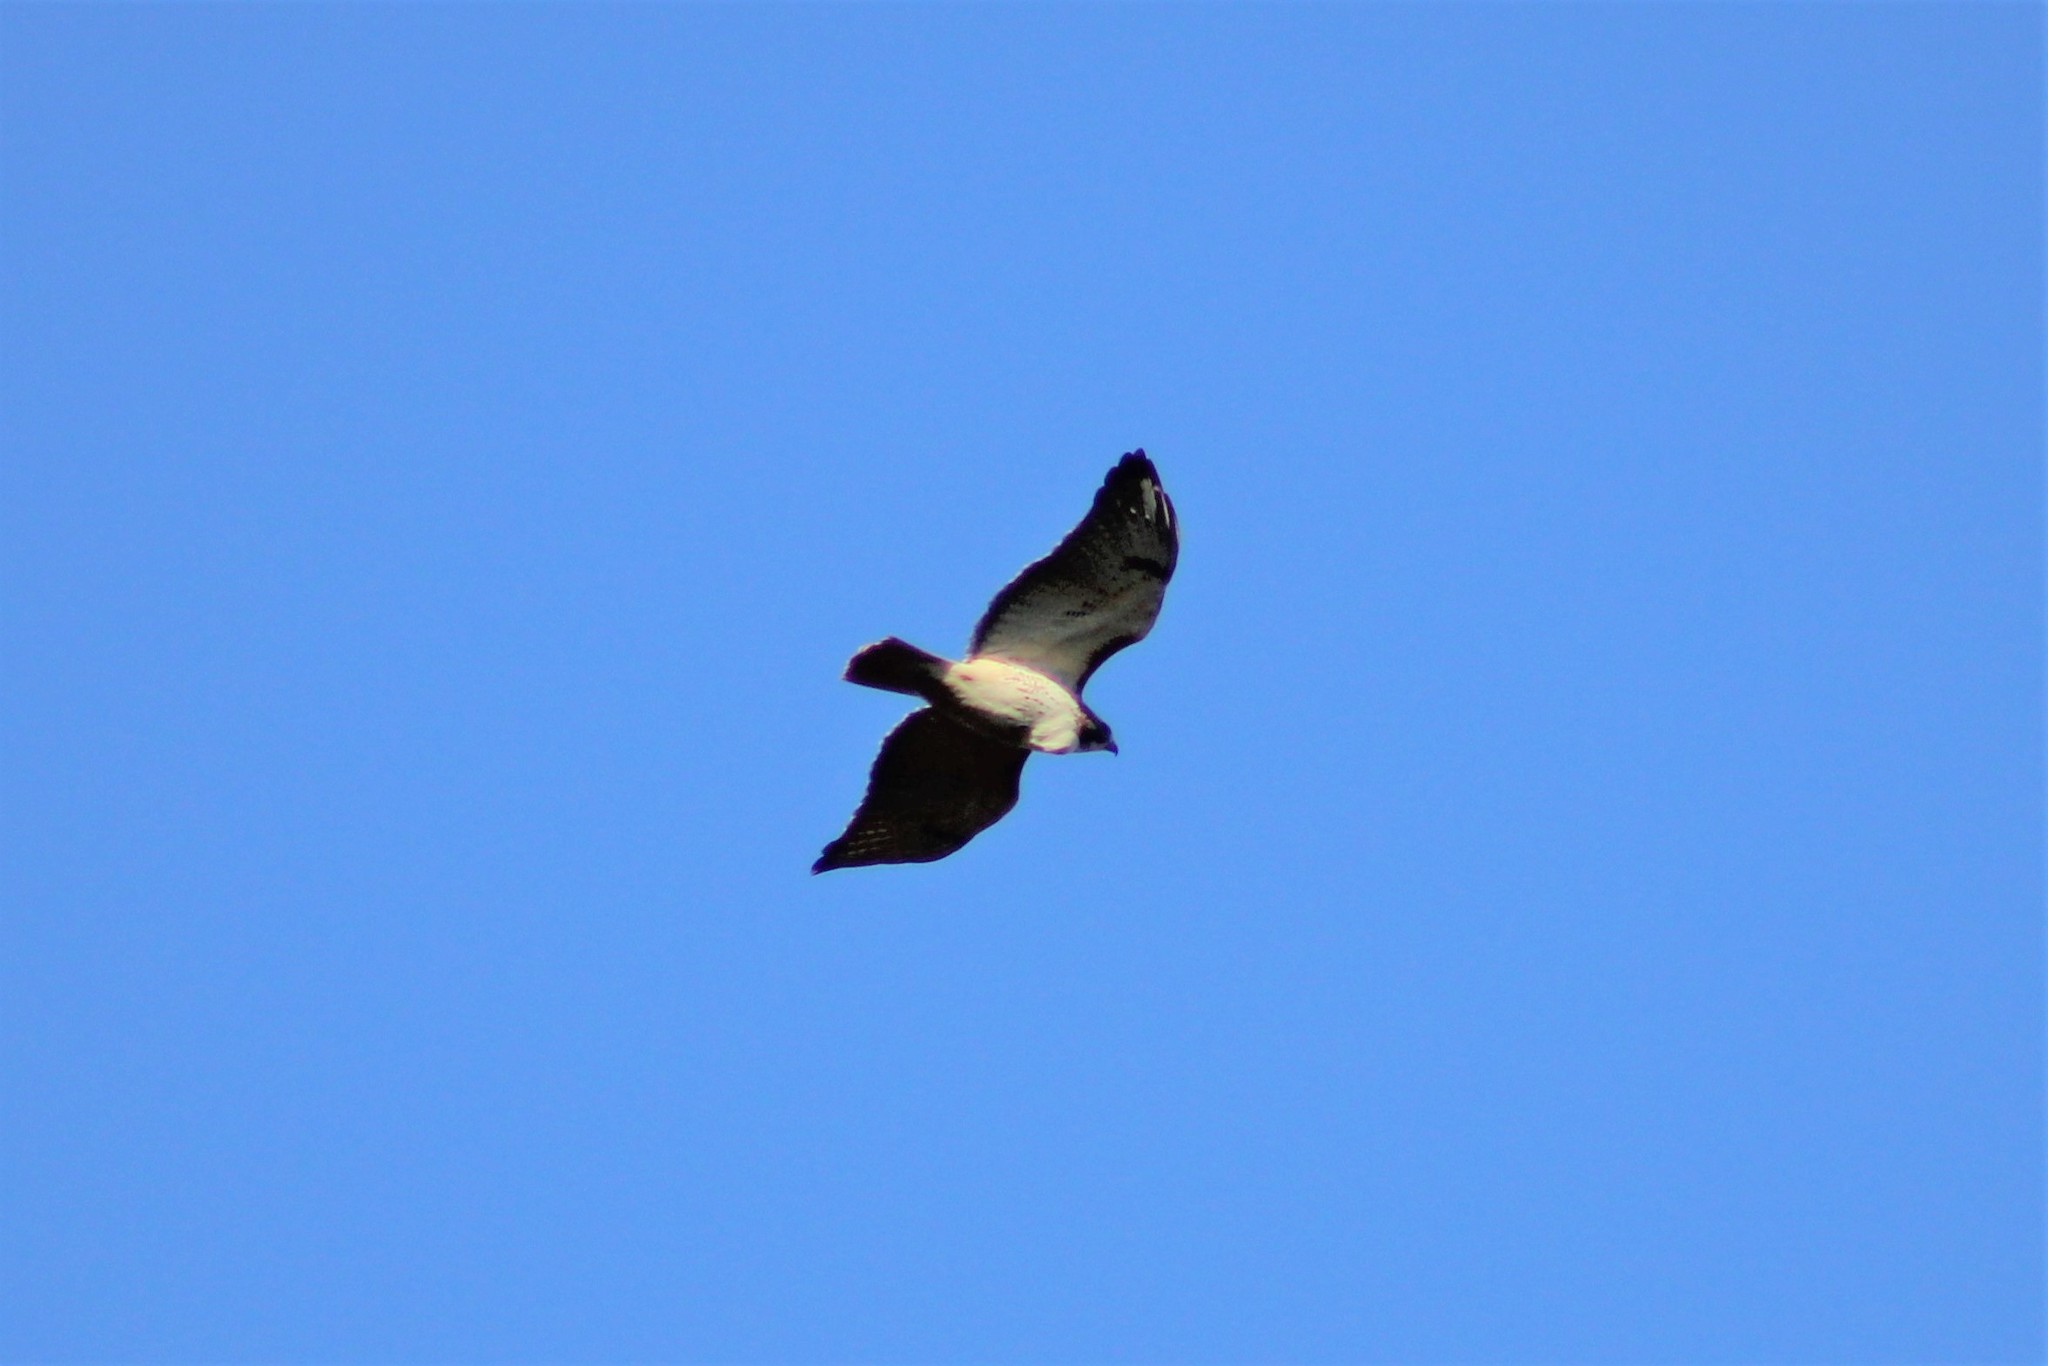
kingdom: Animalia
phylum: Chordata
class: Aves
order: Accipitriformes
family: Accipitridae
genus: Buteo
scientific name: Buteo jamaicensis
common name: Red-tailed hawk
